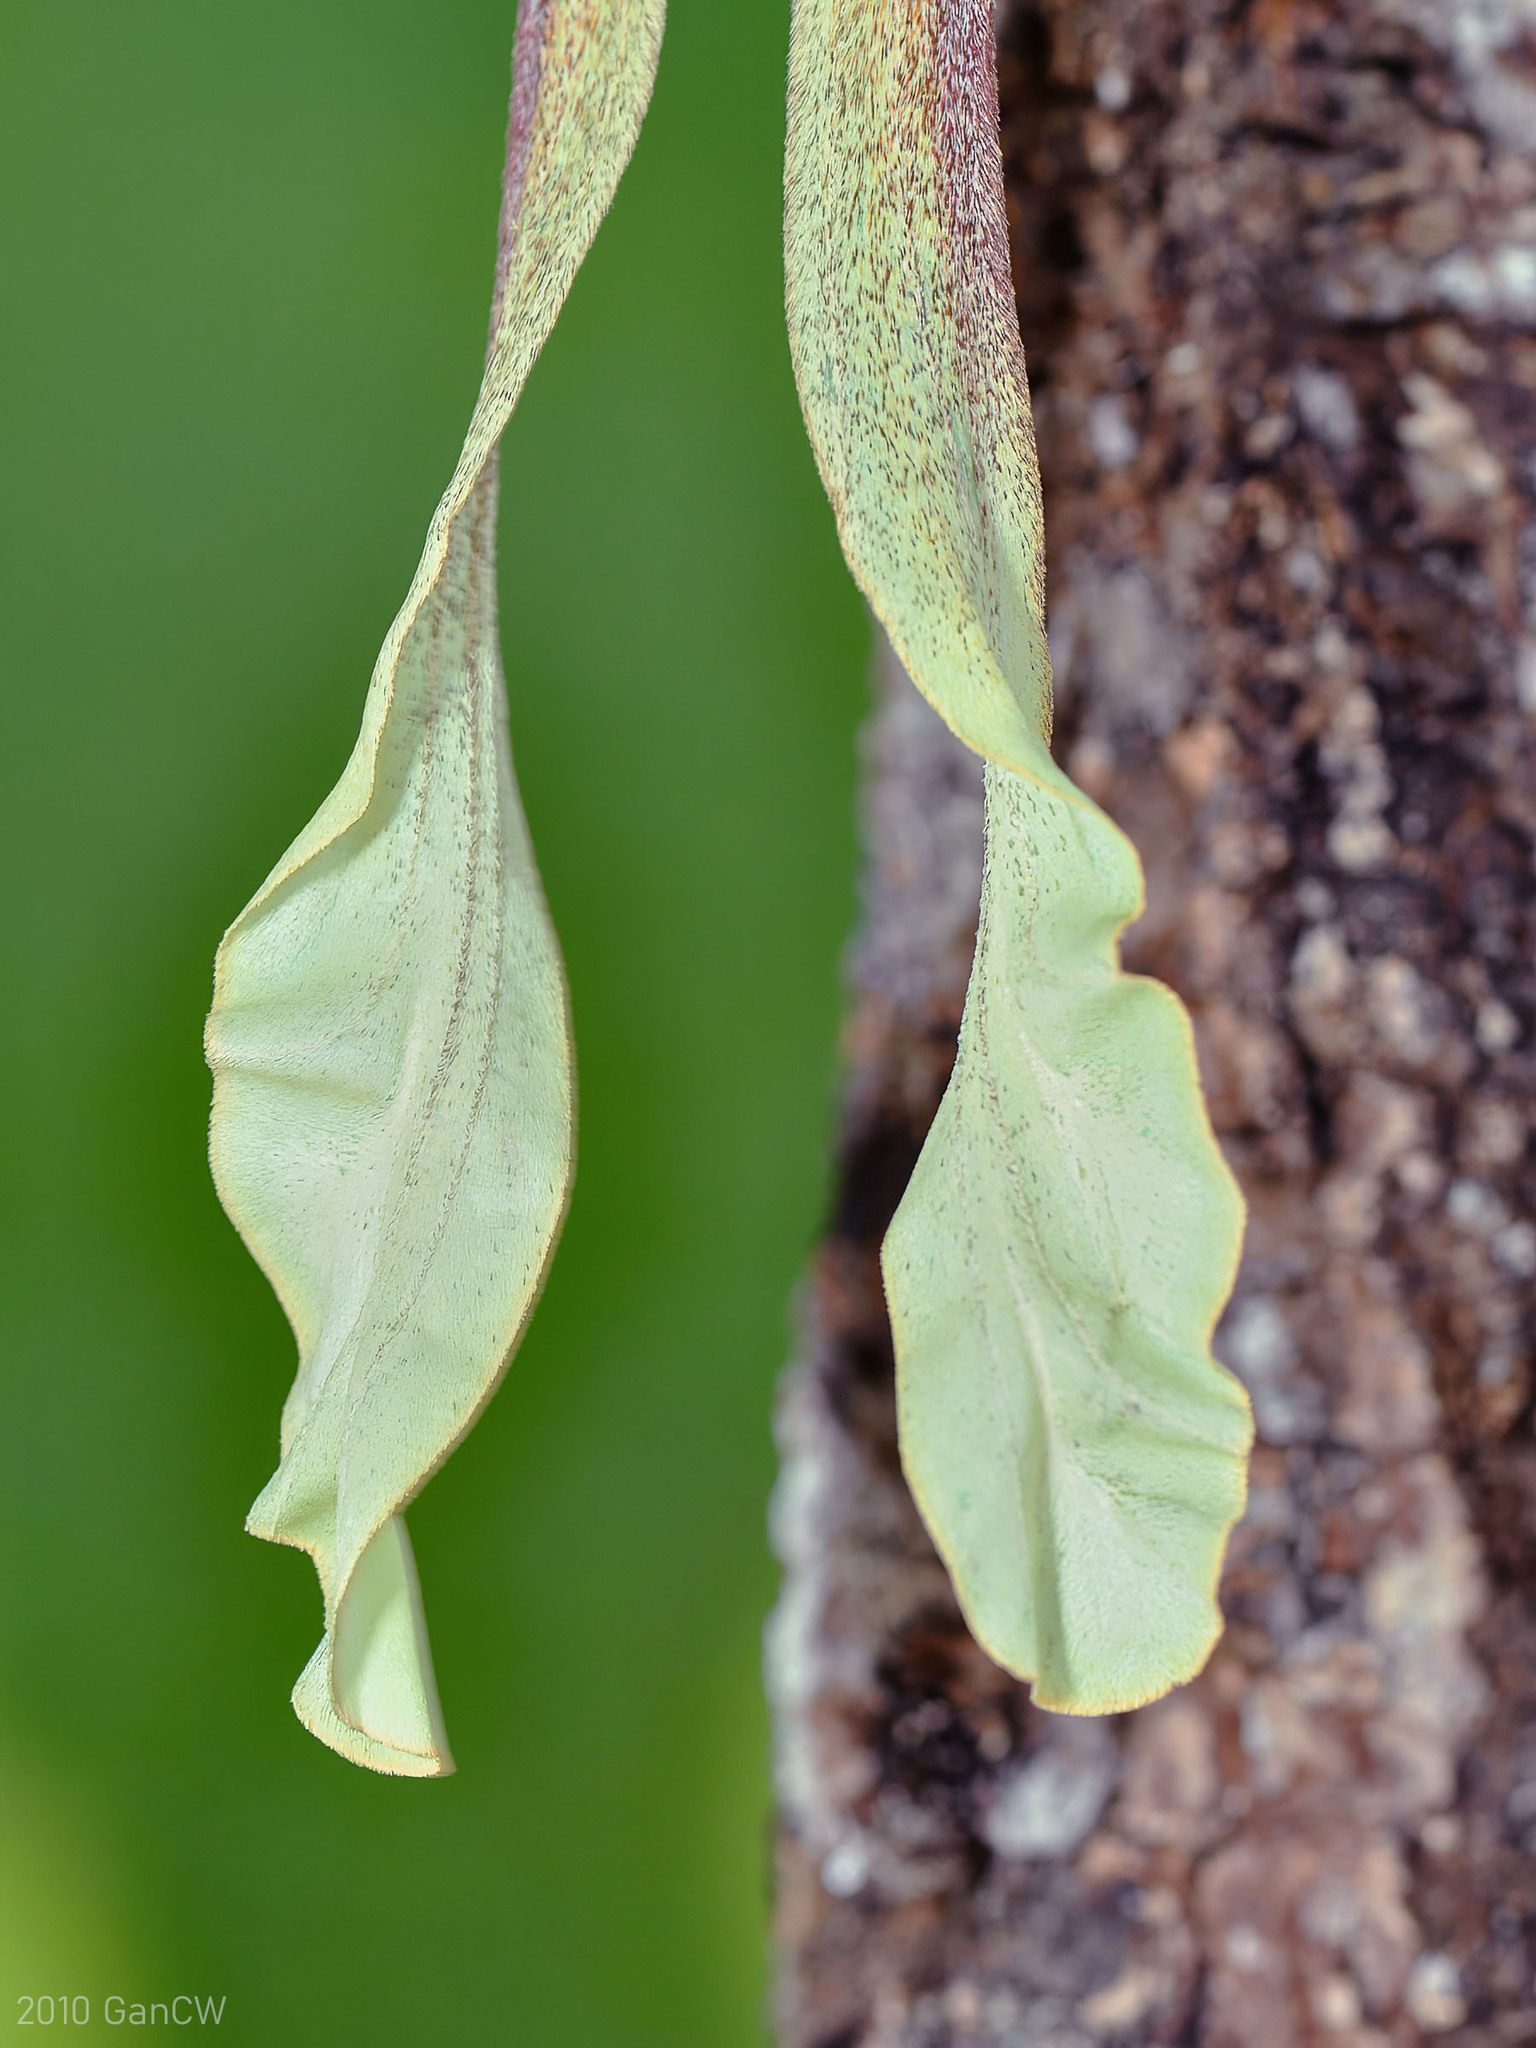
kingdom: Animalia
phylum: Arthropoda
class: Insecta
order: Lepidoptera
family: Saturniidae
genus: Actias
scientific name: Actias maenas
